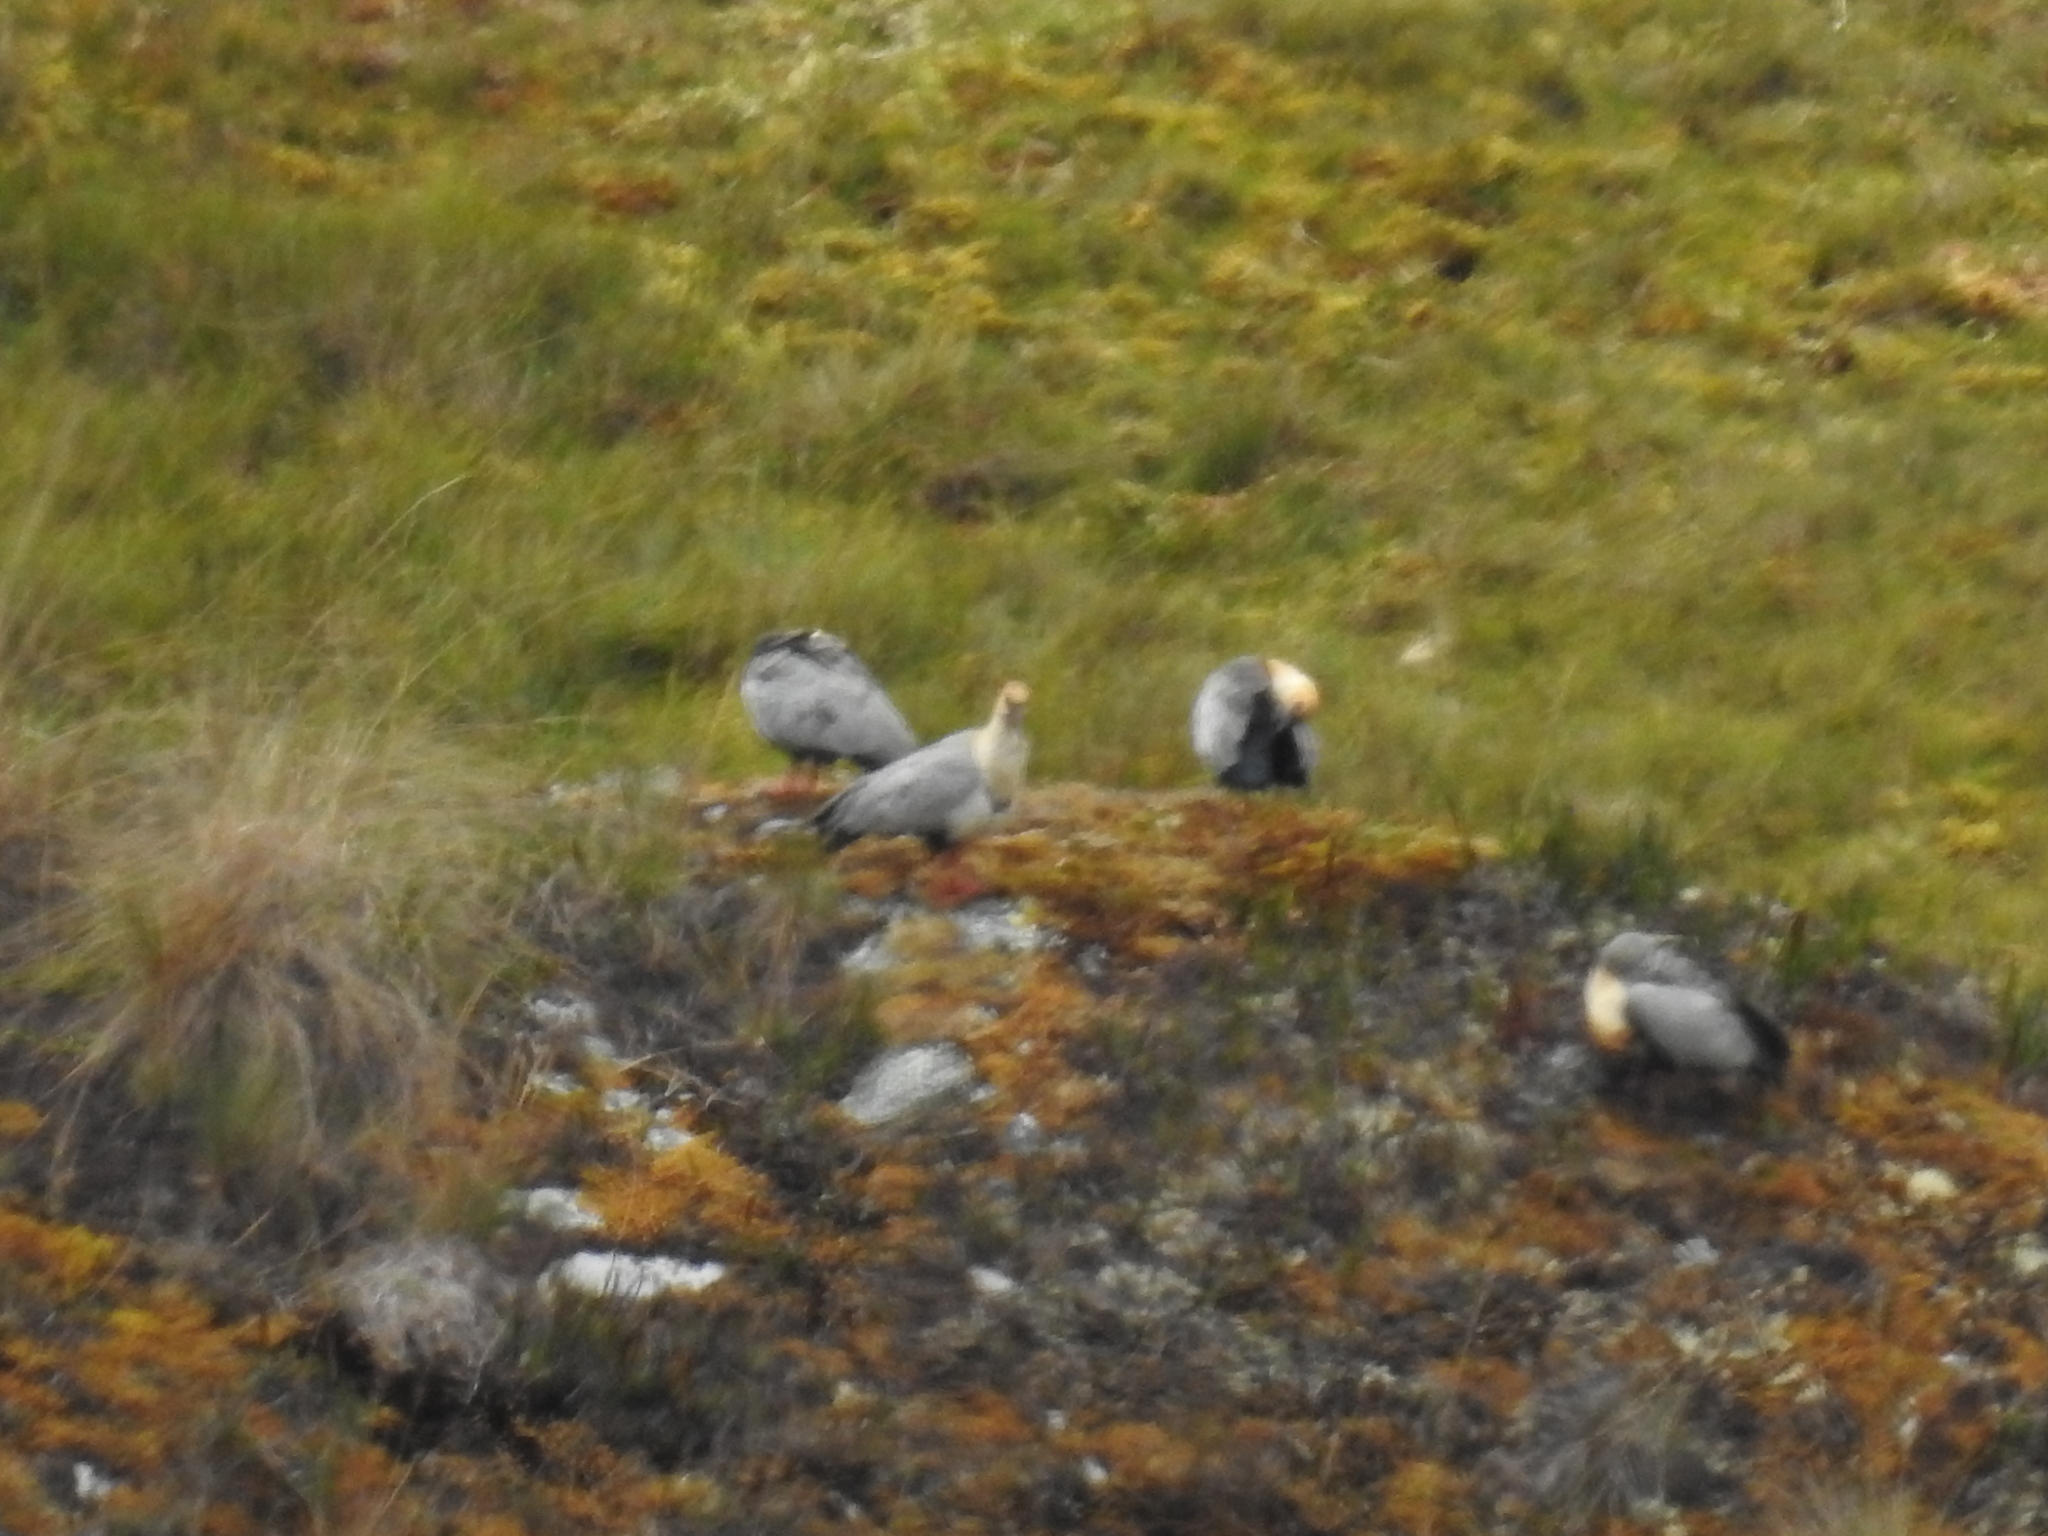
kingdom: Animalia
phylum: Chordata
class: Aves
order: Pelecaniformes
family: Threskiornithidae
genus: Theristicus
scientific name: Theristicus melanopis
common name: Black-faced ibis
